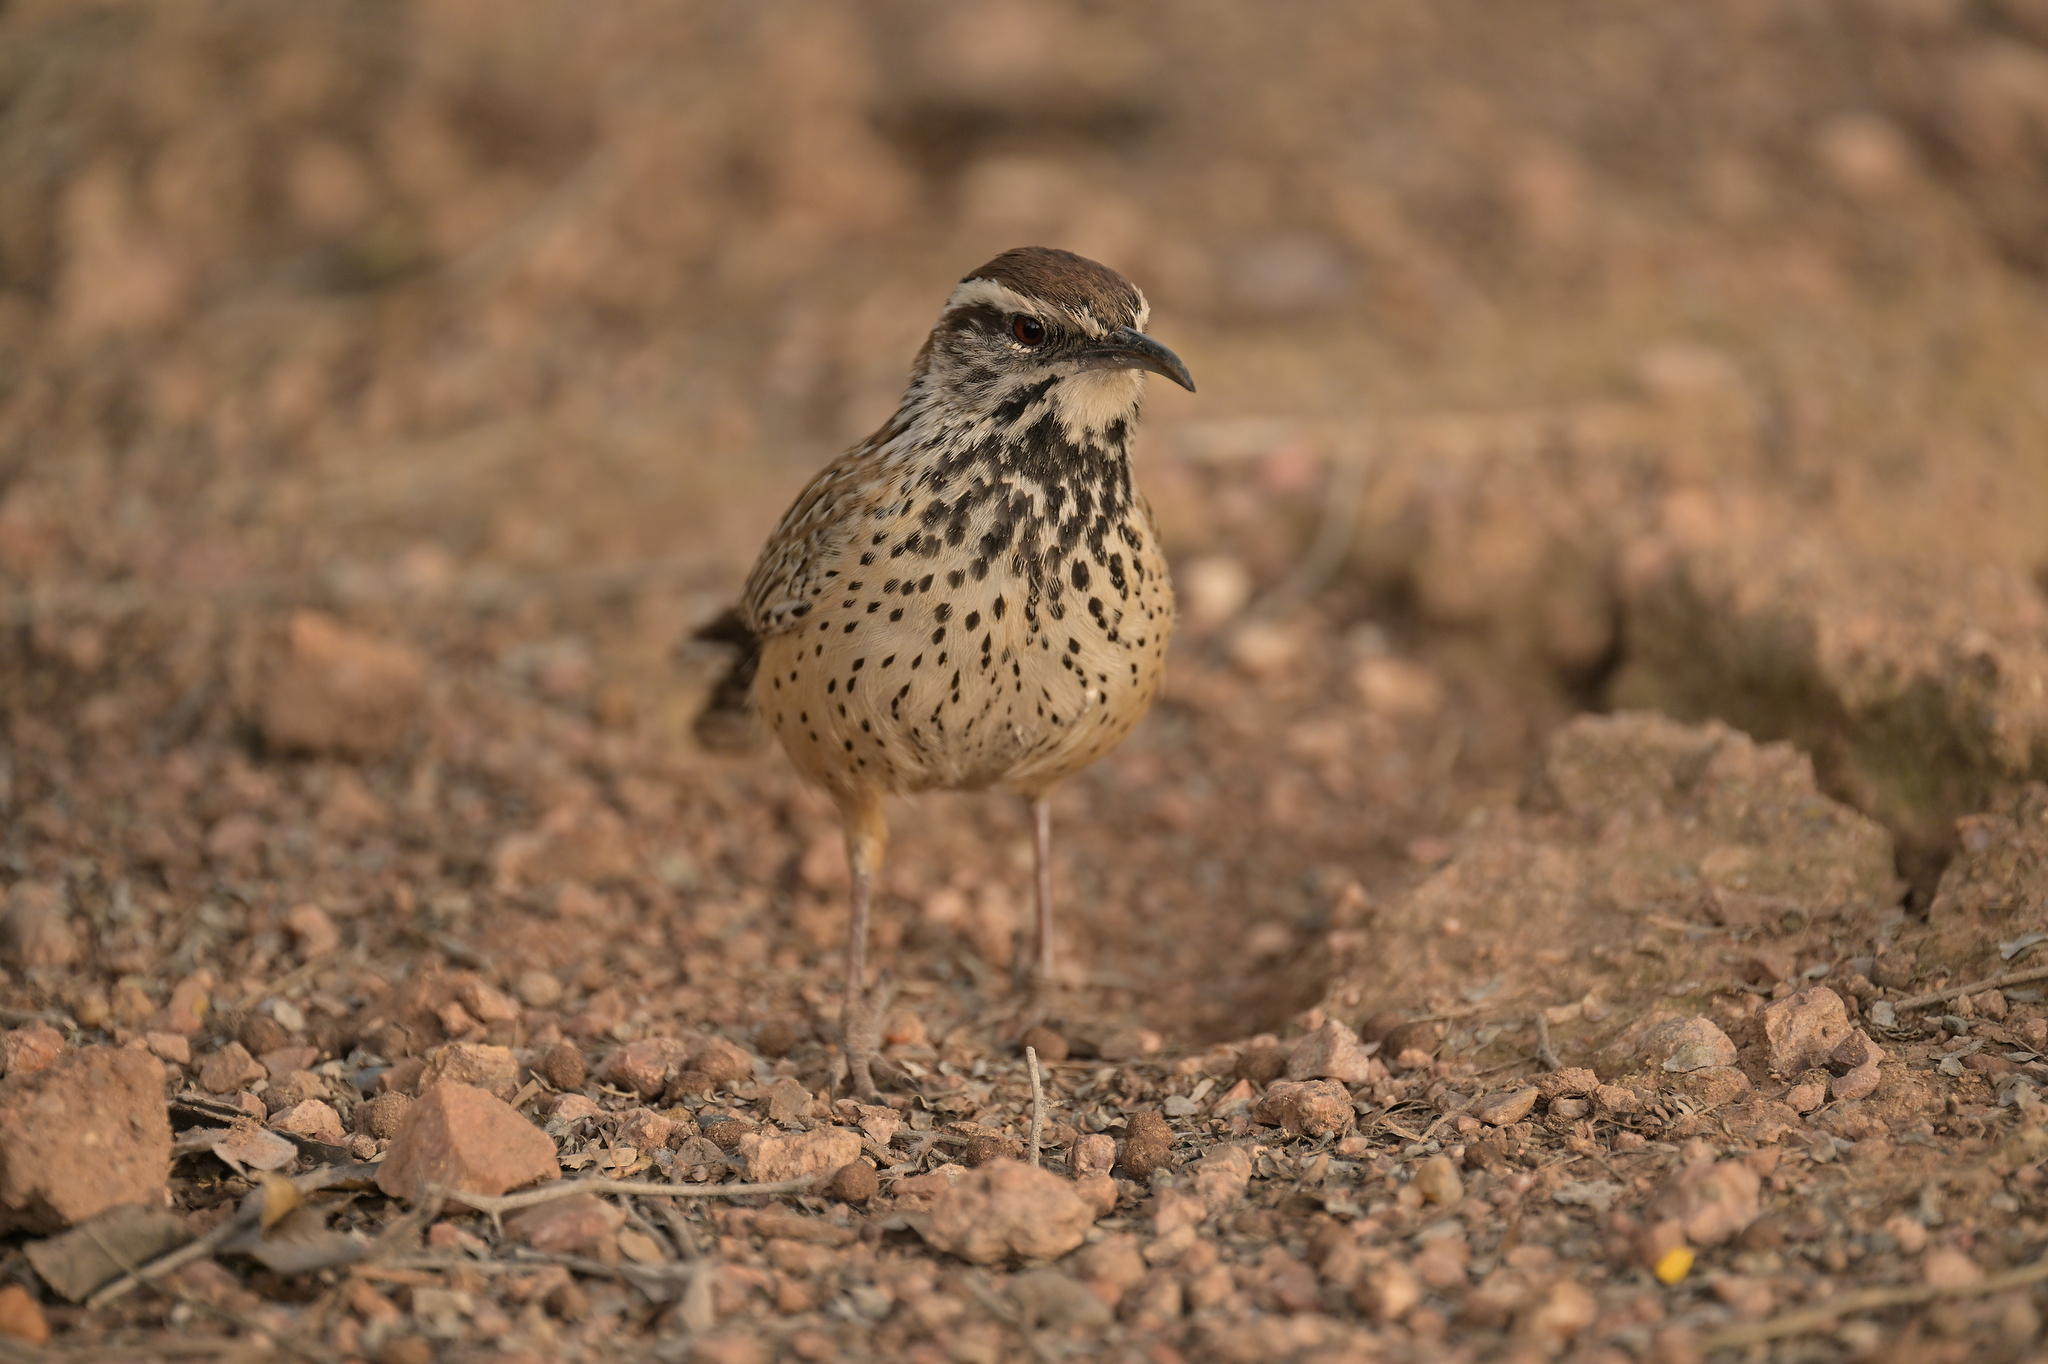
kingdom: Animalia
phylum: Chordata
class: Aves
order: Passeriformes
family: Troglodytidae
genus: Campylorhynchus
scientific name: Campylorhynchus brunneicapillus
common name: Cactus wren
